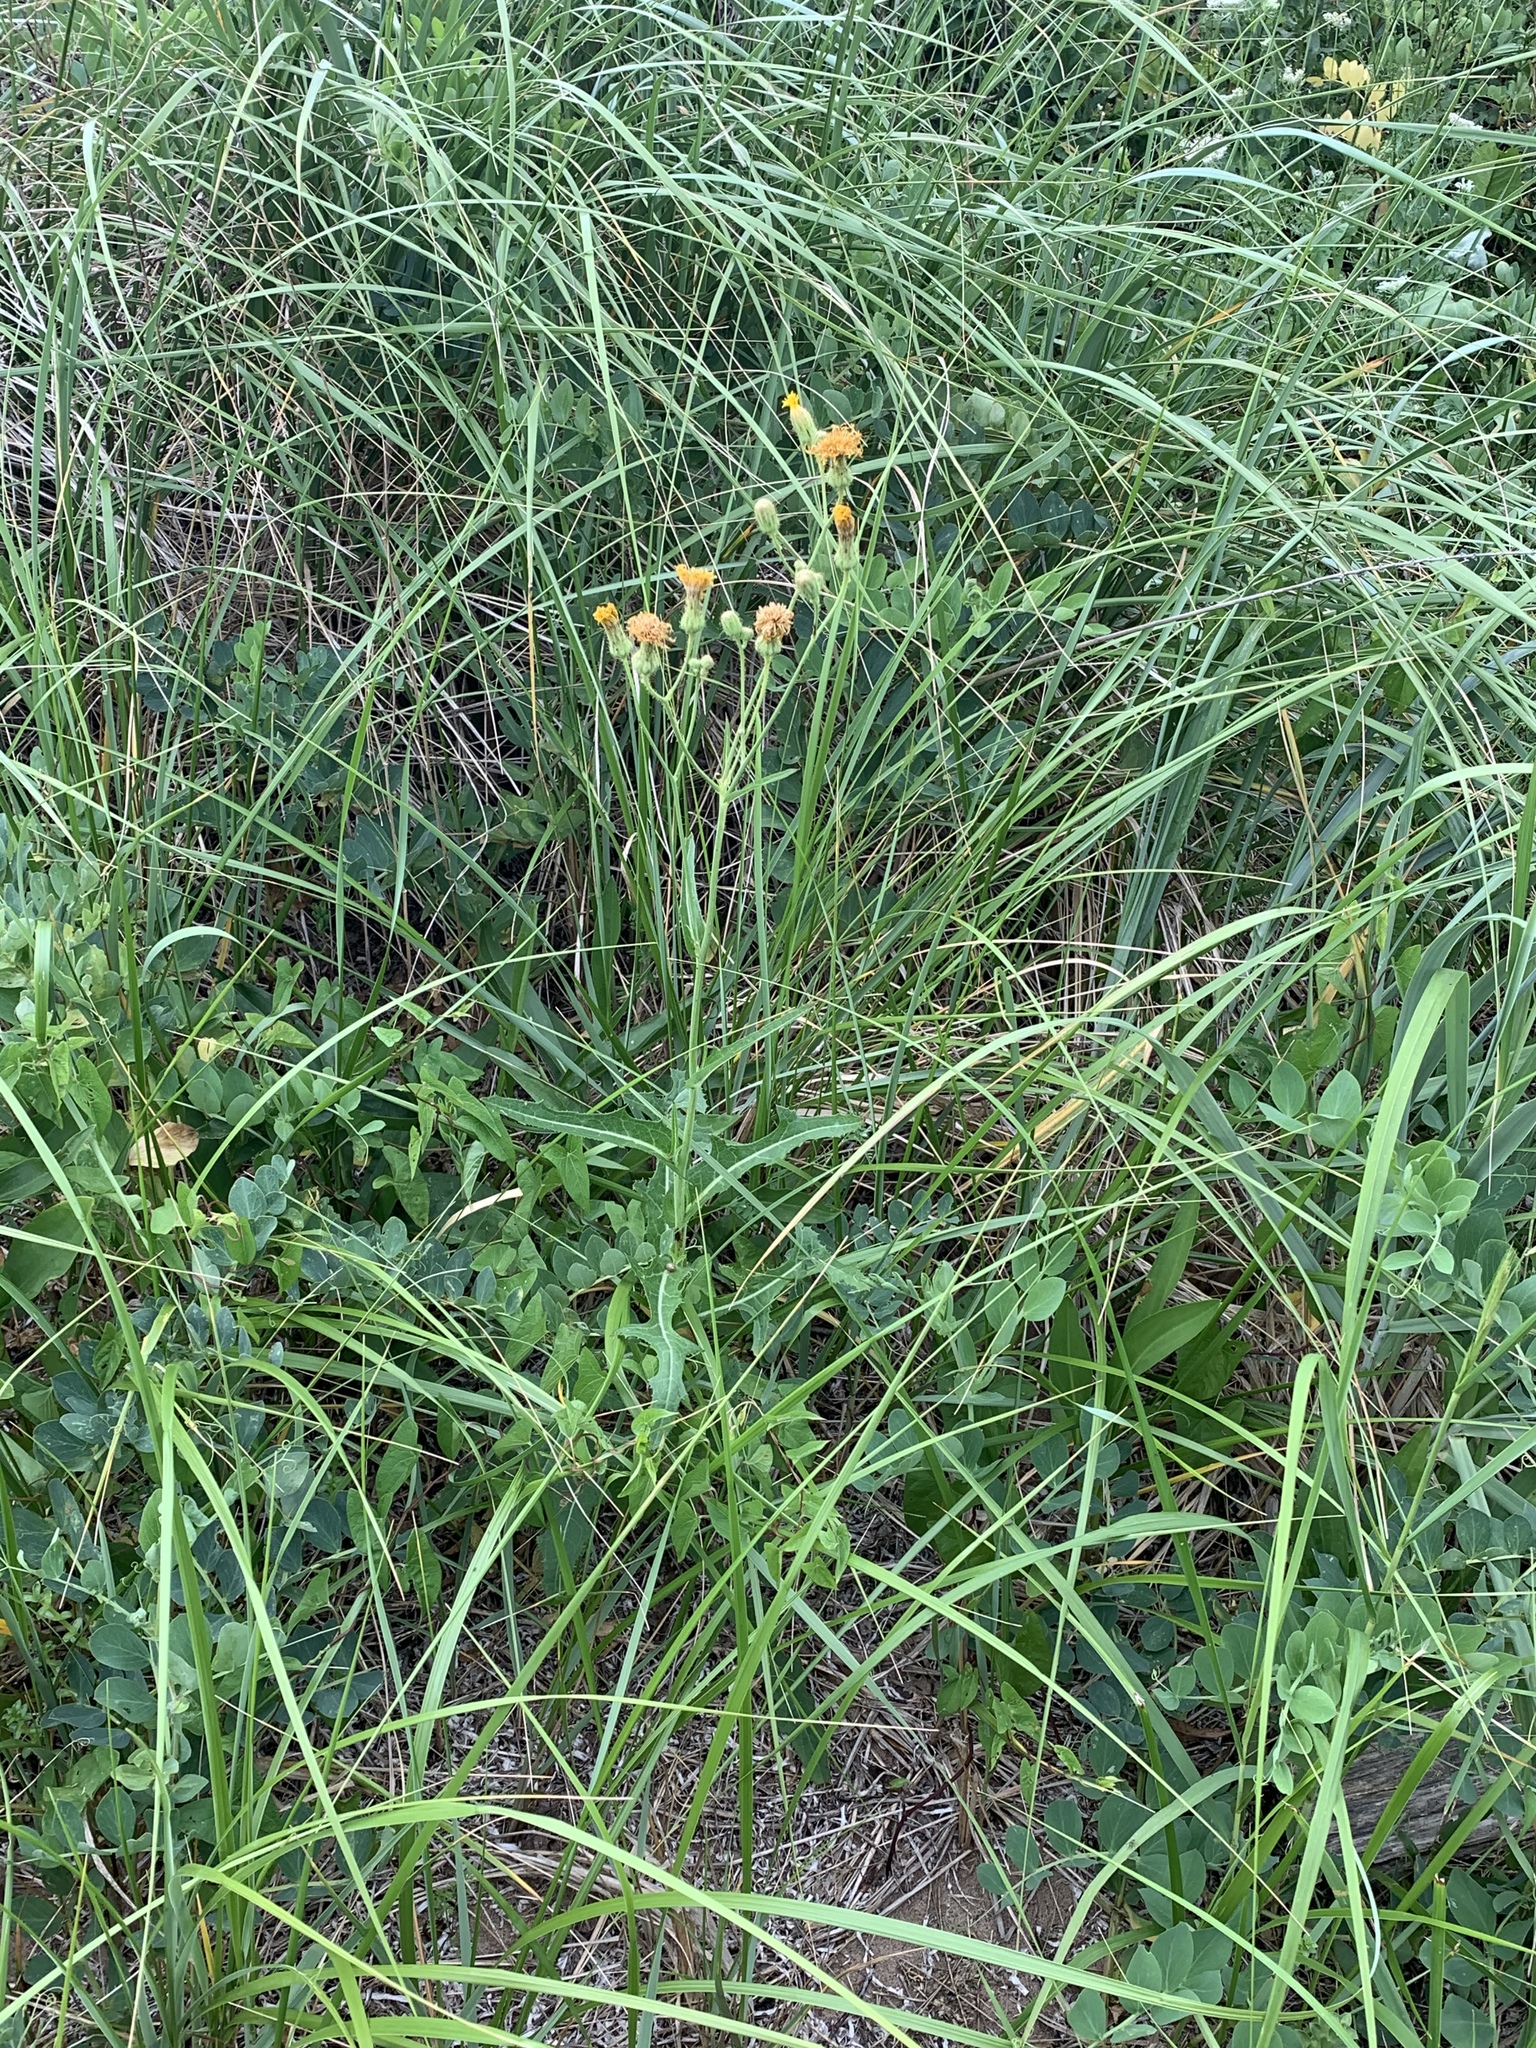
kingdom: Plantae
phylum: Tracheophyta
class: Magnoliopsida
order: Asterales
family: Asteraceae
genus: Sonchus
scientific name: Sonchus arvensis
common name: Perennial sow-thistle
